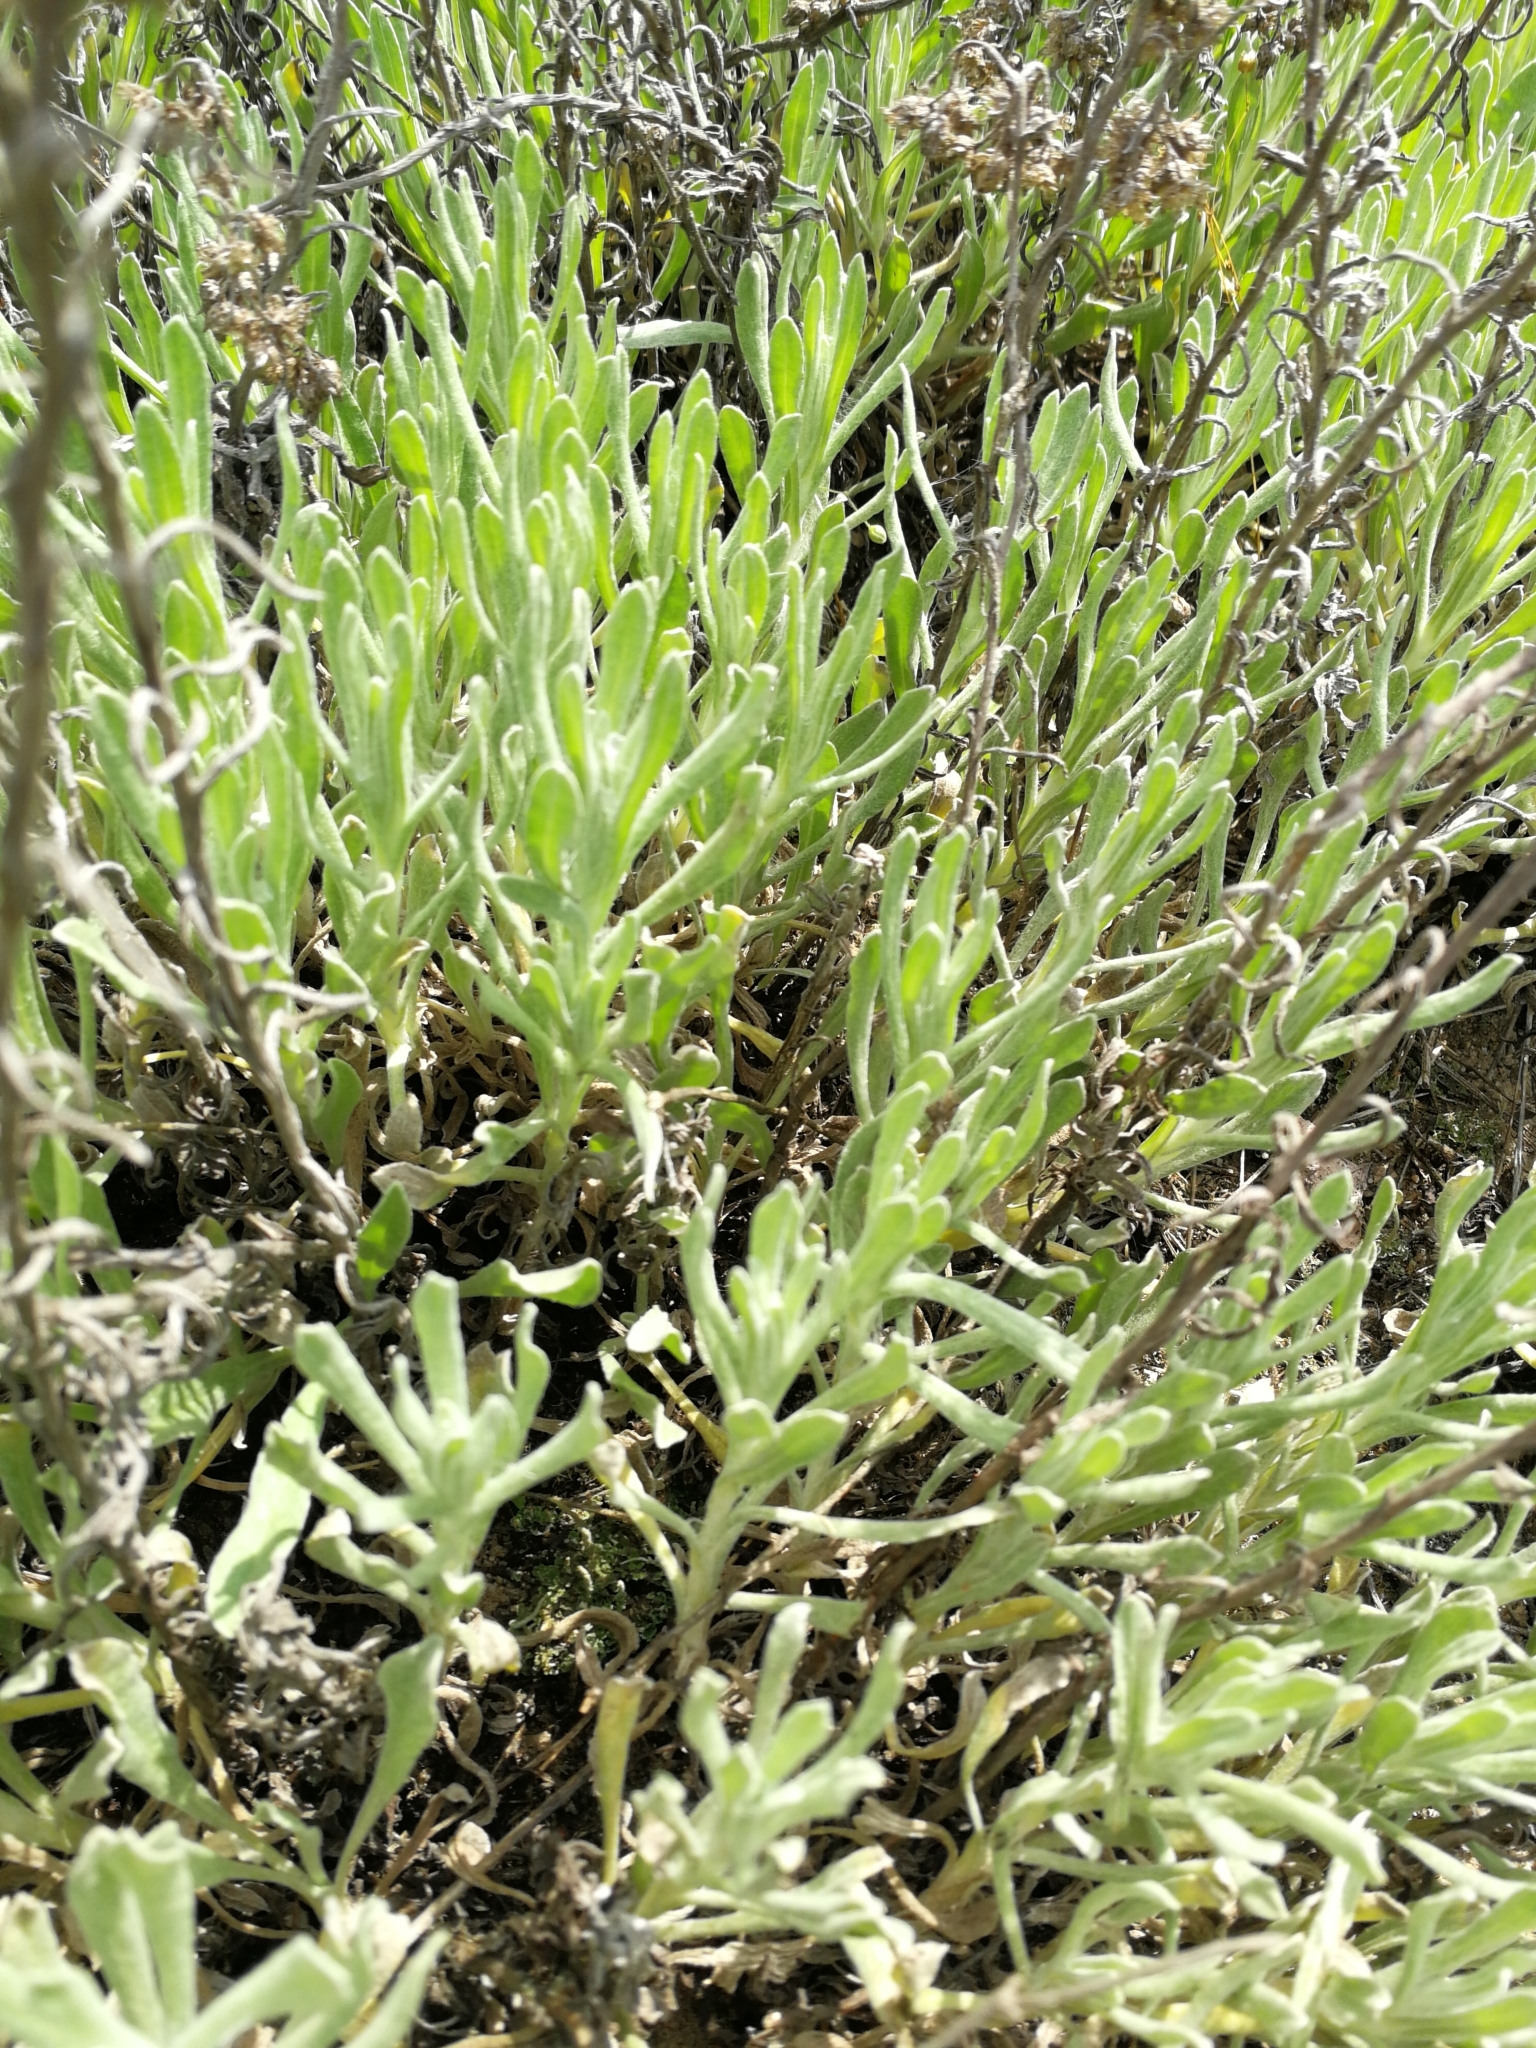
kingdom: Plantae
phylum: Tracheophyta
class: Magnoliopsida
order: Asterales
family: Asteraceae
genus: Helichrysum
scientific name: Helichrysum arenarium
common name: Strawflower
